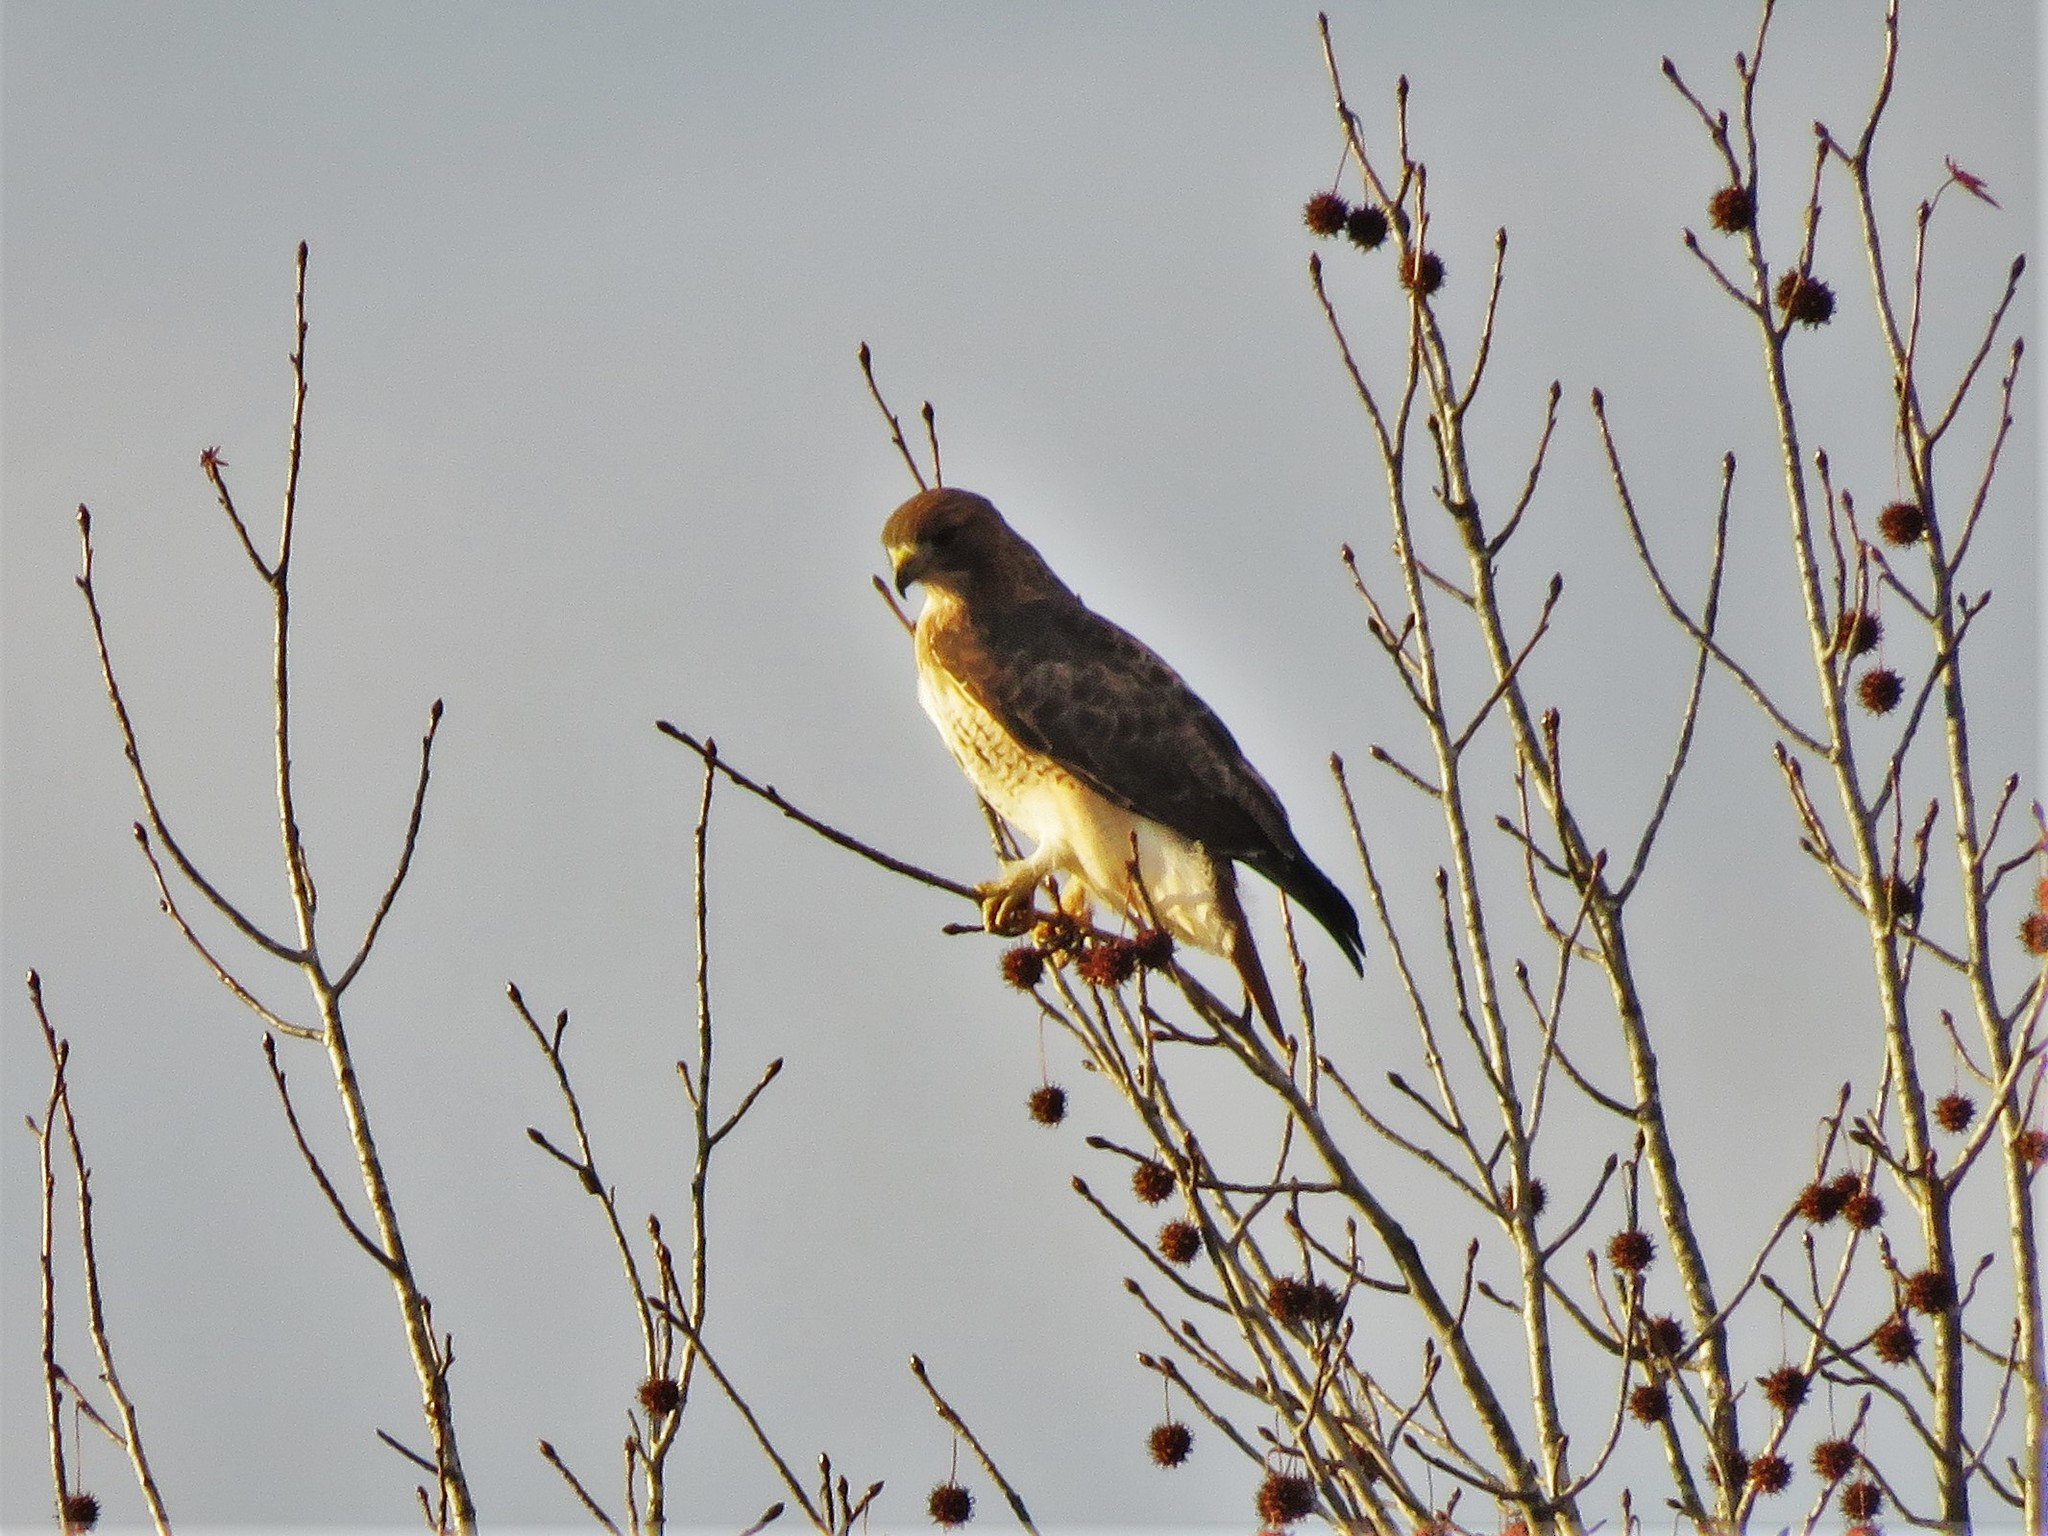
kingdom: Animalia
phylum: Chordata
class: Aves
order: Accipitriformes
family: Accipitridae
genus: Buteo
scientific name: Buteo jamaicensis
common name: Red-tailed hawk
